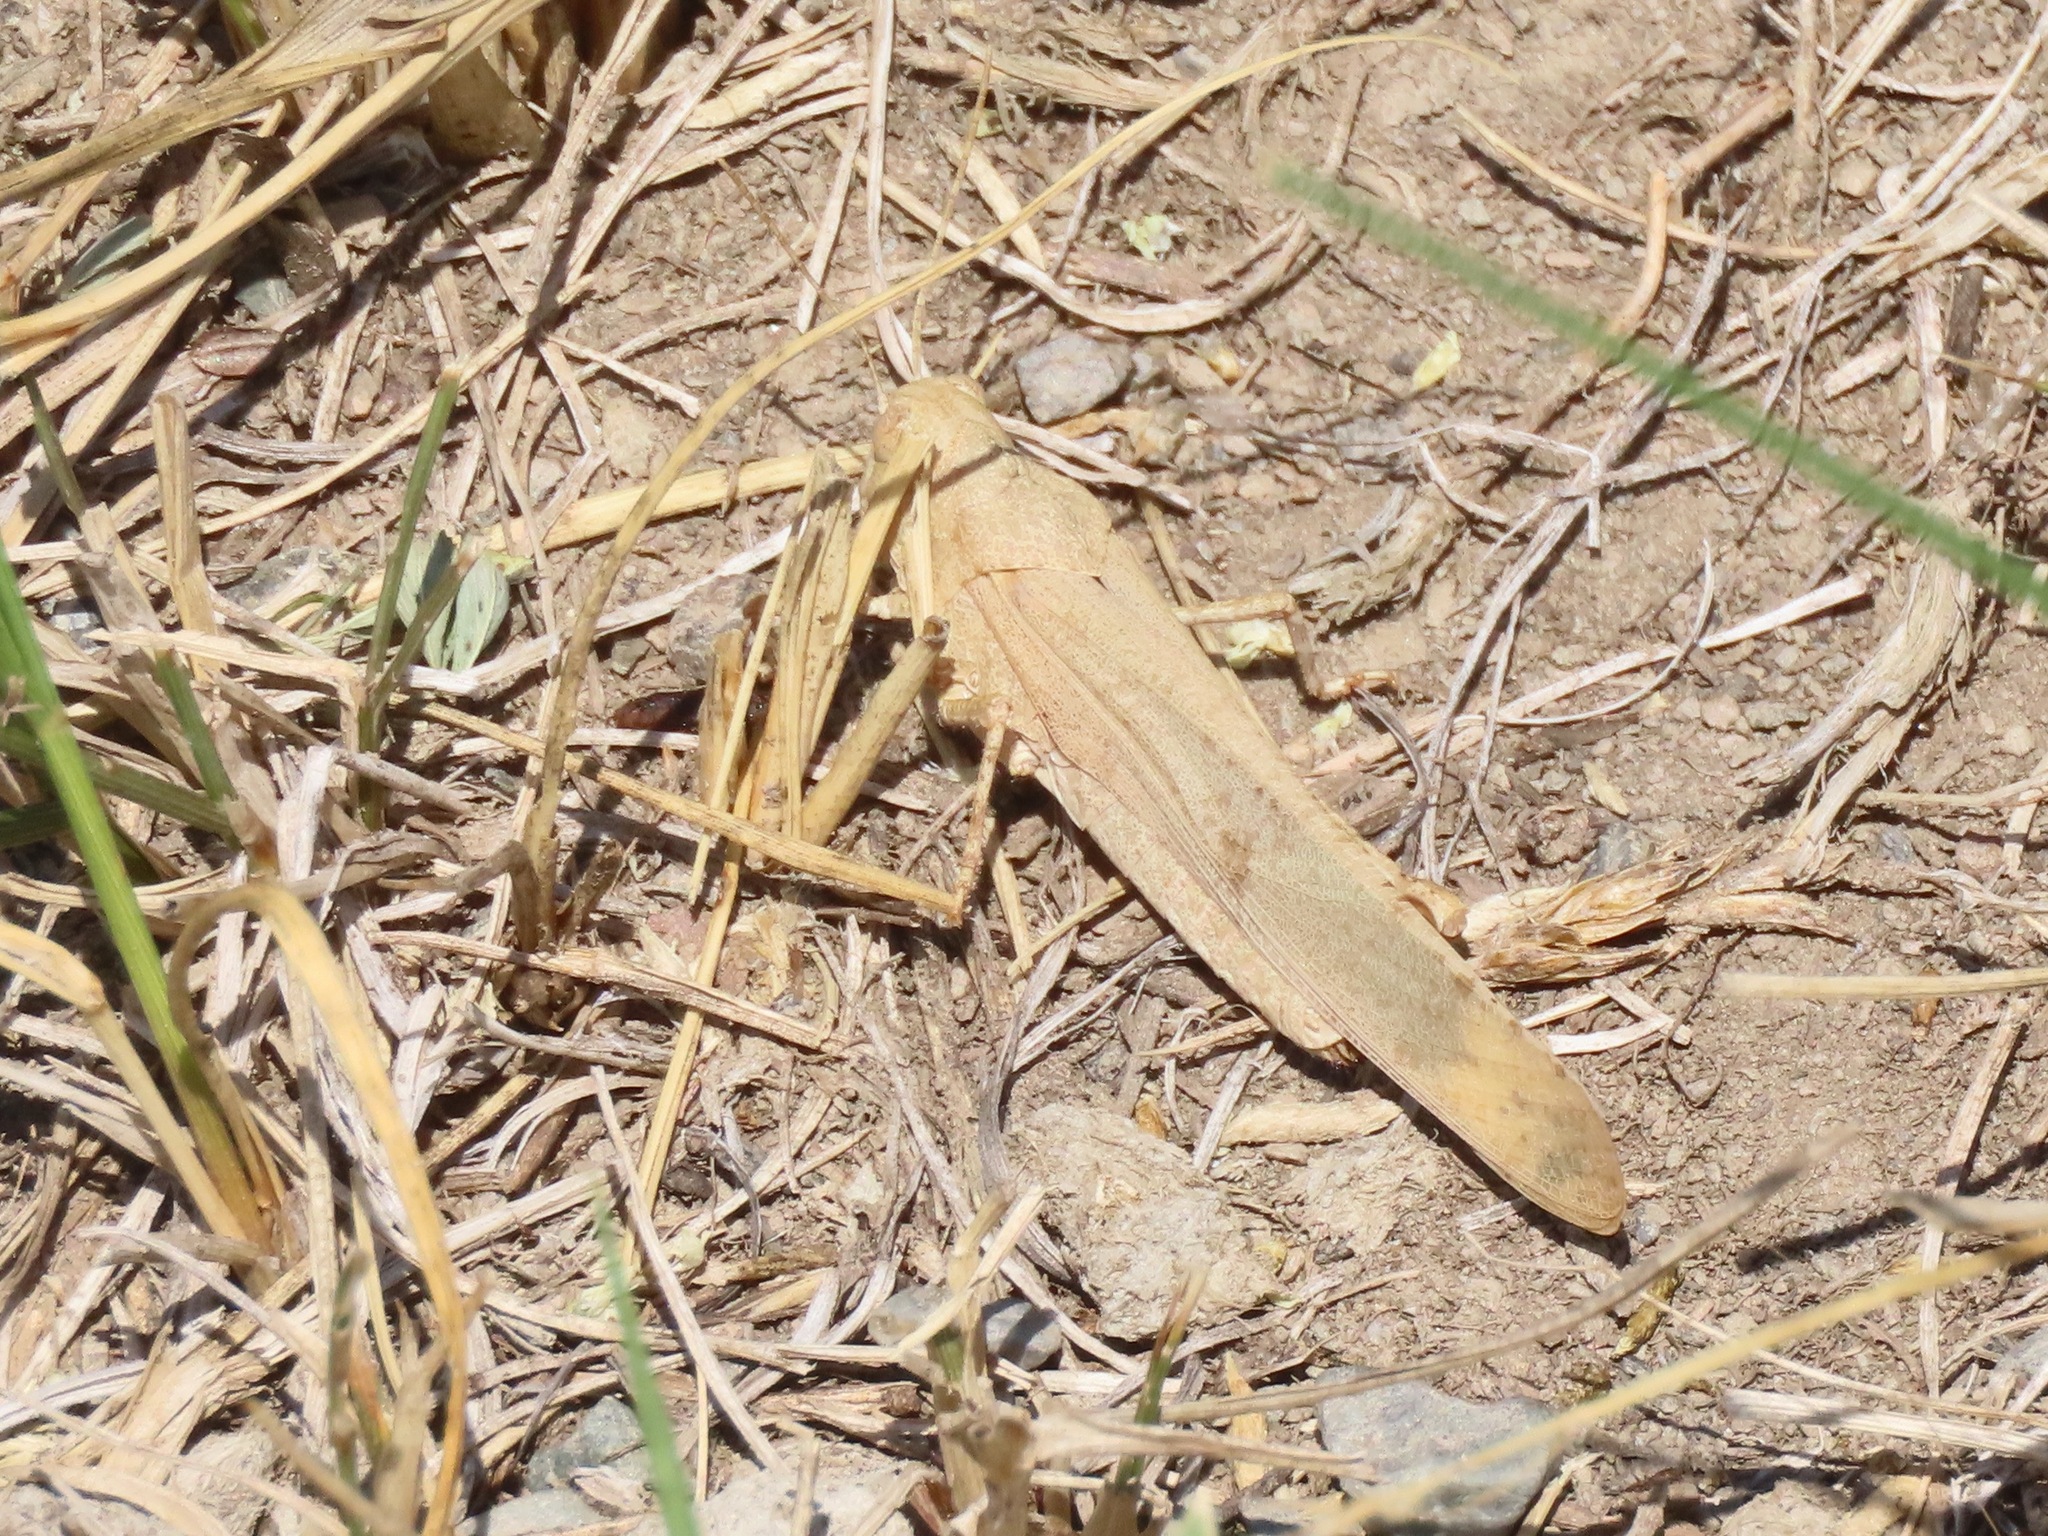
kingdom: Animalia
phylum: Arthropoda
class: Insecta
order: Orthoptera
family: Acrididae
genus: Dissosteira
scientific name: Dissosteira carolina
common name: Carolina grasshopper
